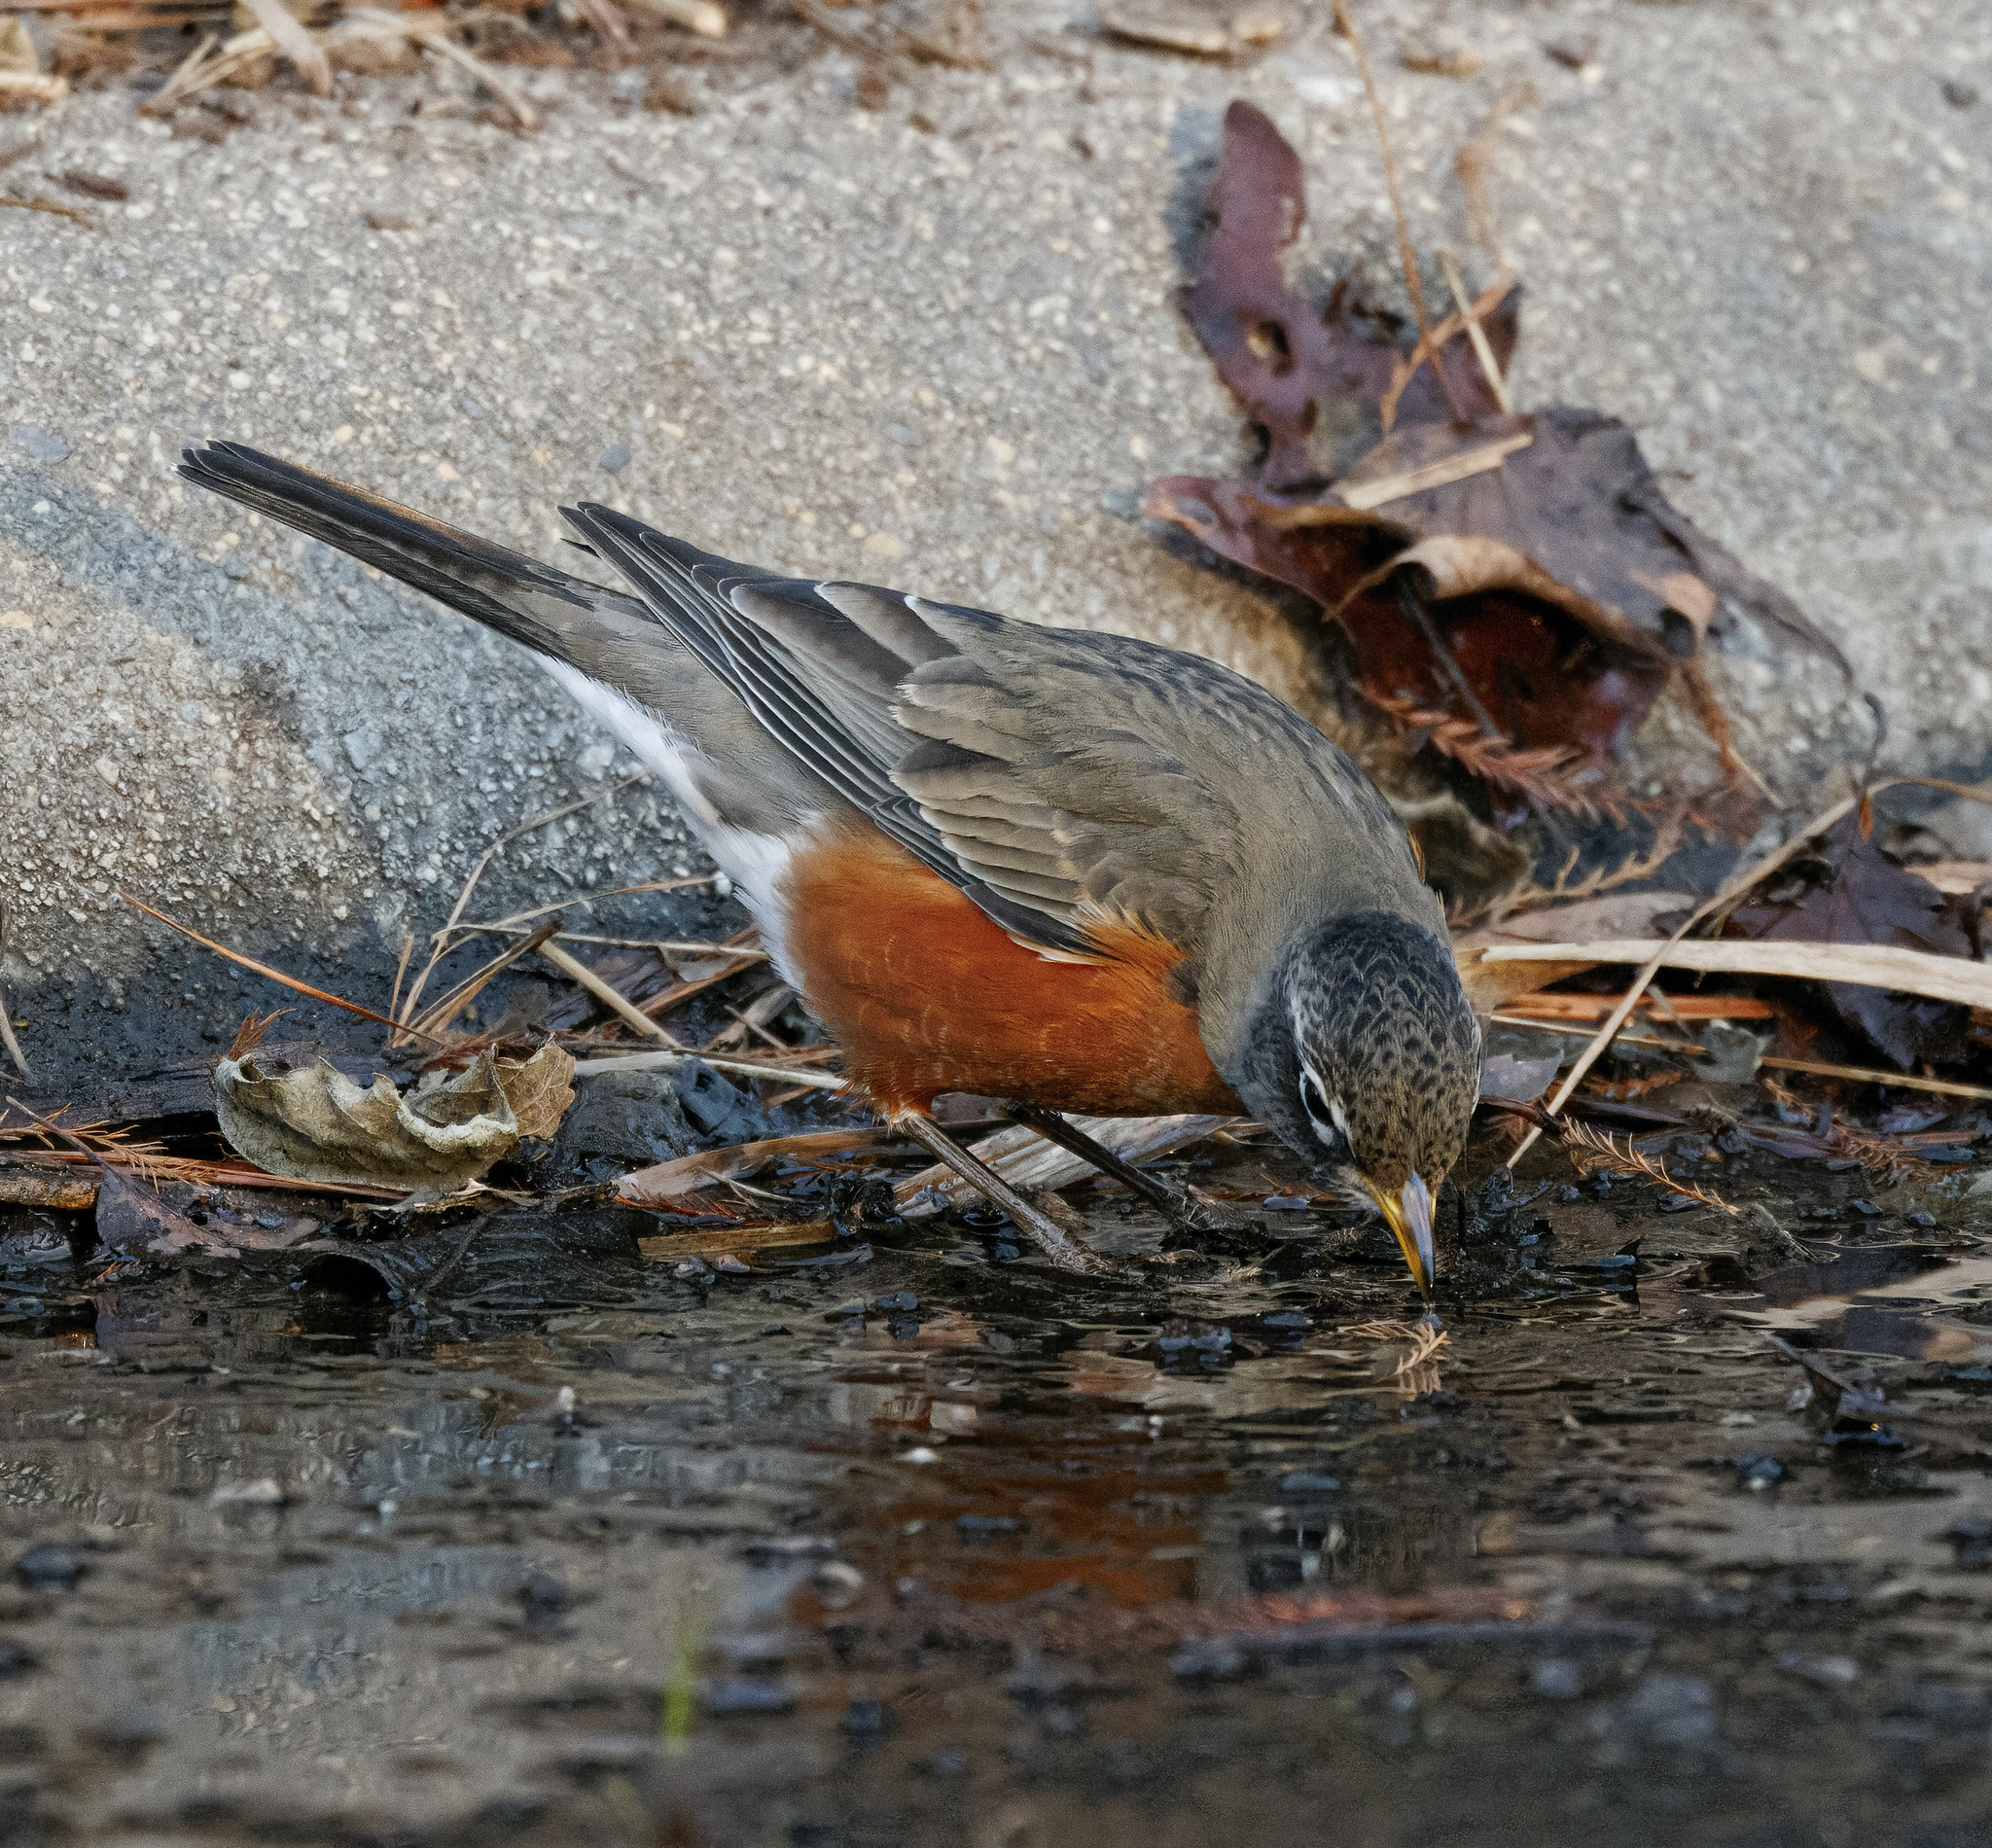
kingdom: Animalia
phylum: Chordata
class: Aves
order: Passeriformes
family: Turdidae
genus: Turdus
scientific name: Turdus migratorius
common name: American robin
